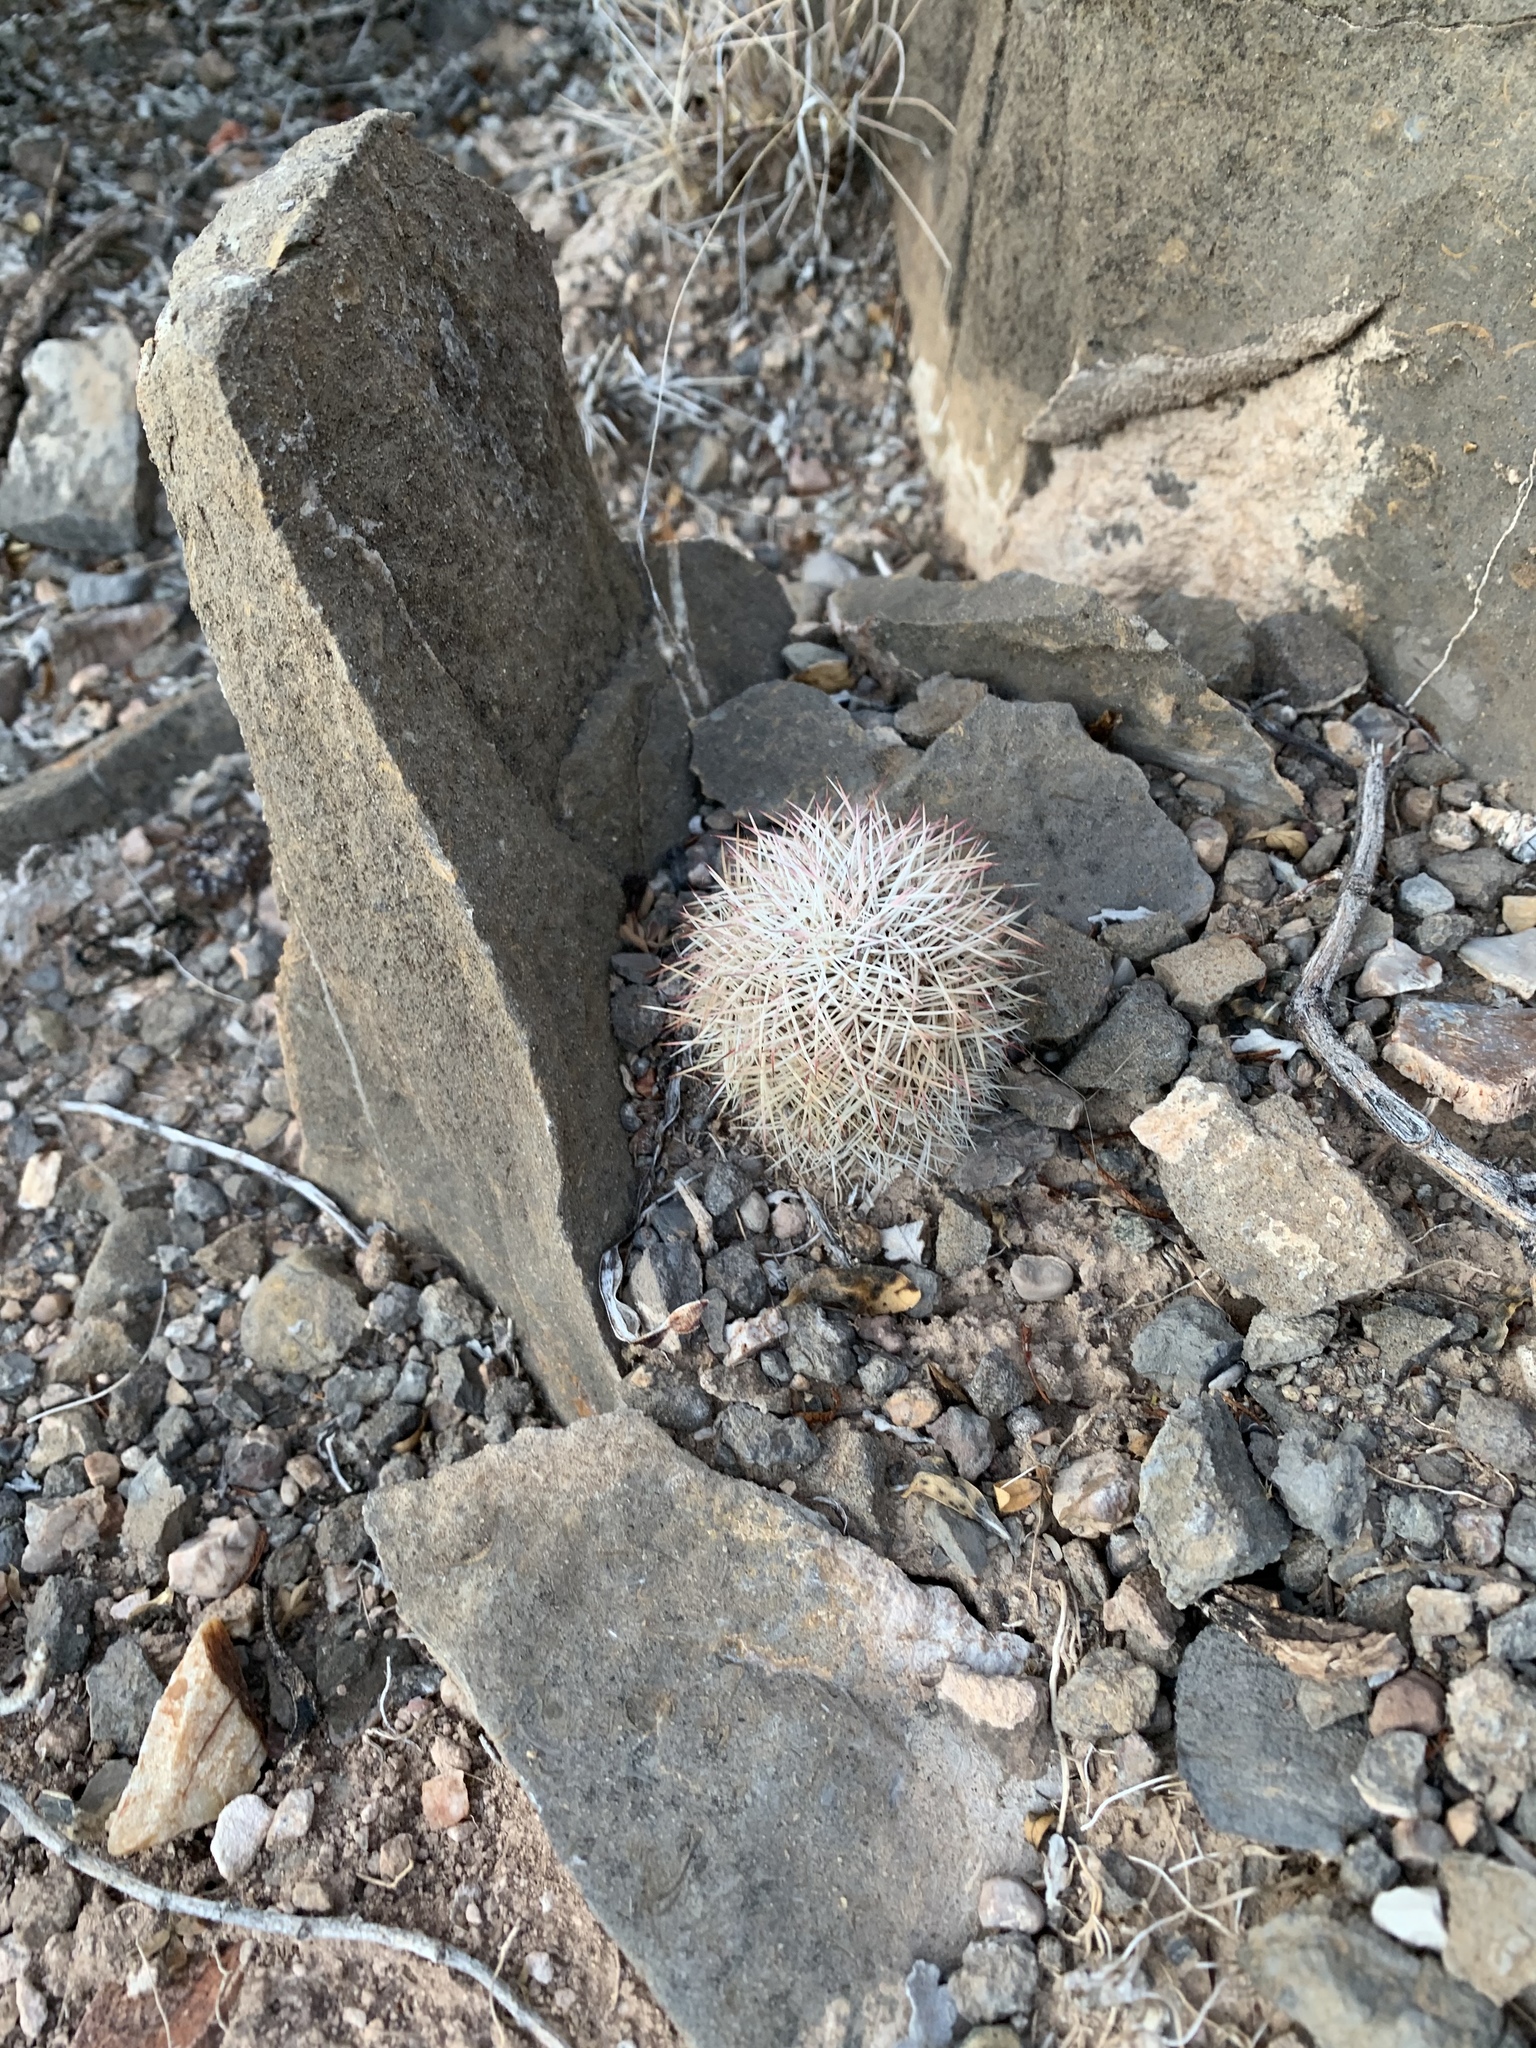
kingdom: Plantae
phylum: Tracheophyta
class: Magnoliopsida
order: Caryophyllales
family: Cactaceae
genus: Echinocereus
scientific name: Echinocereus dasyacanthus
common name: Spiny hedgehog cactus
